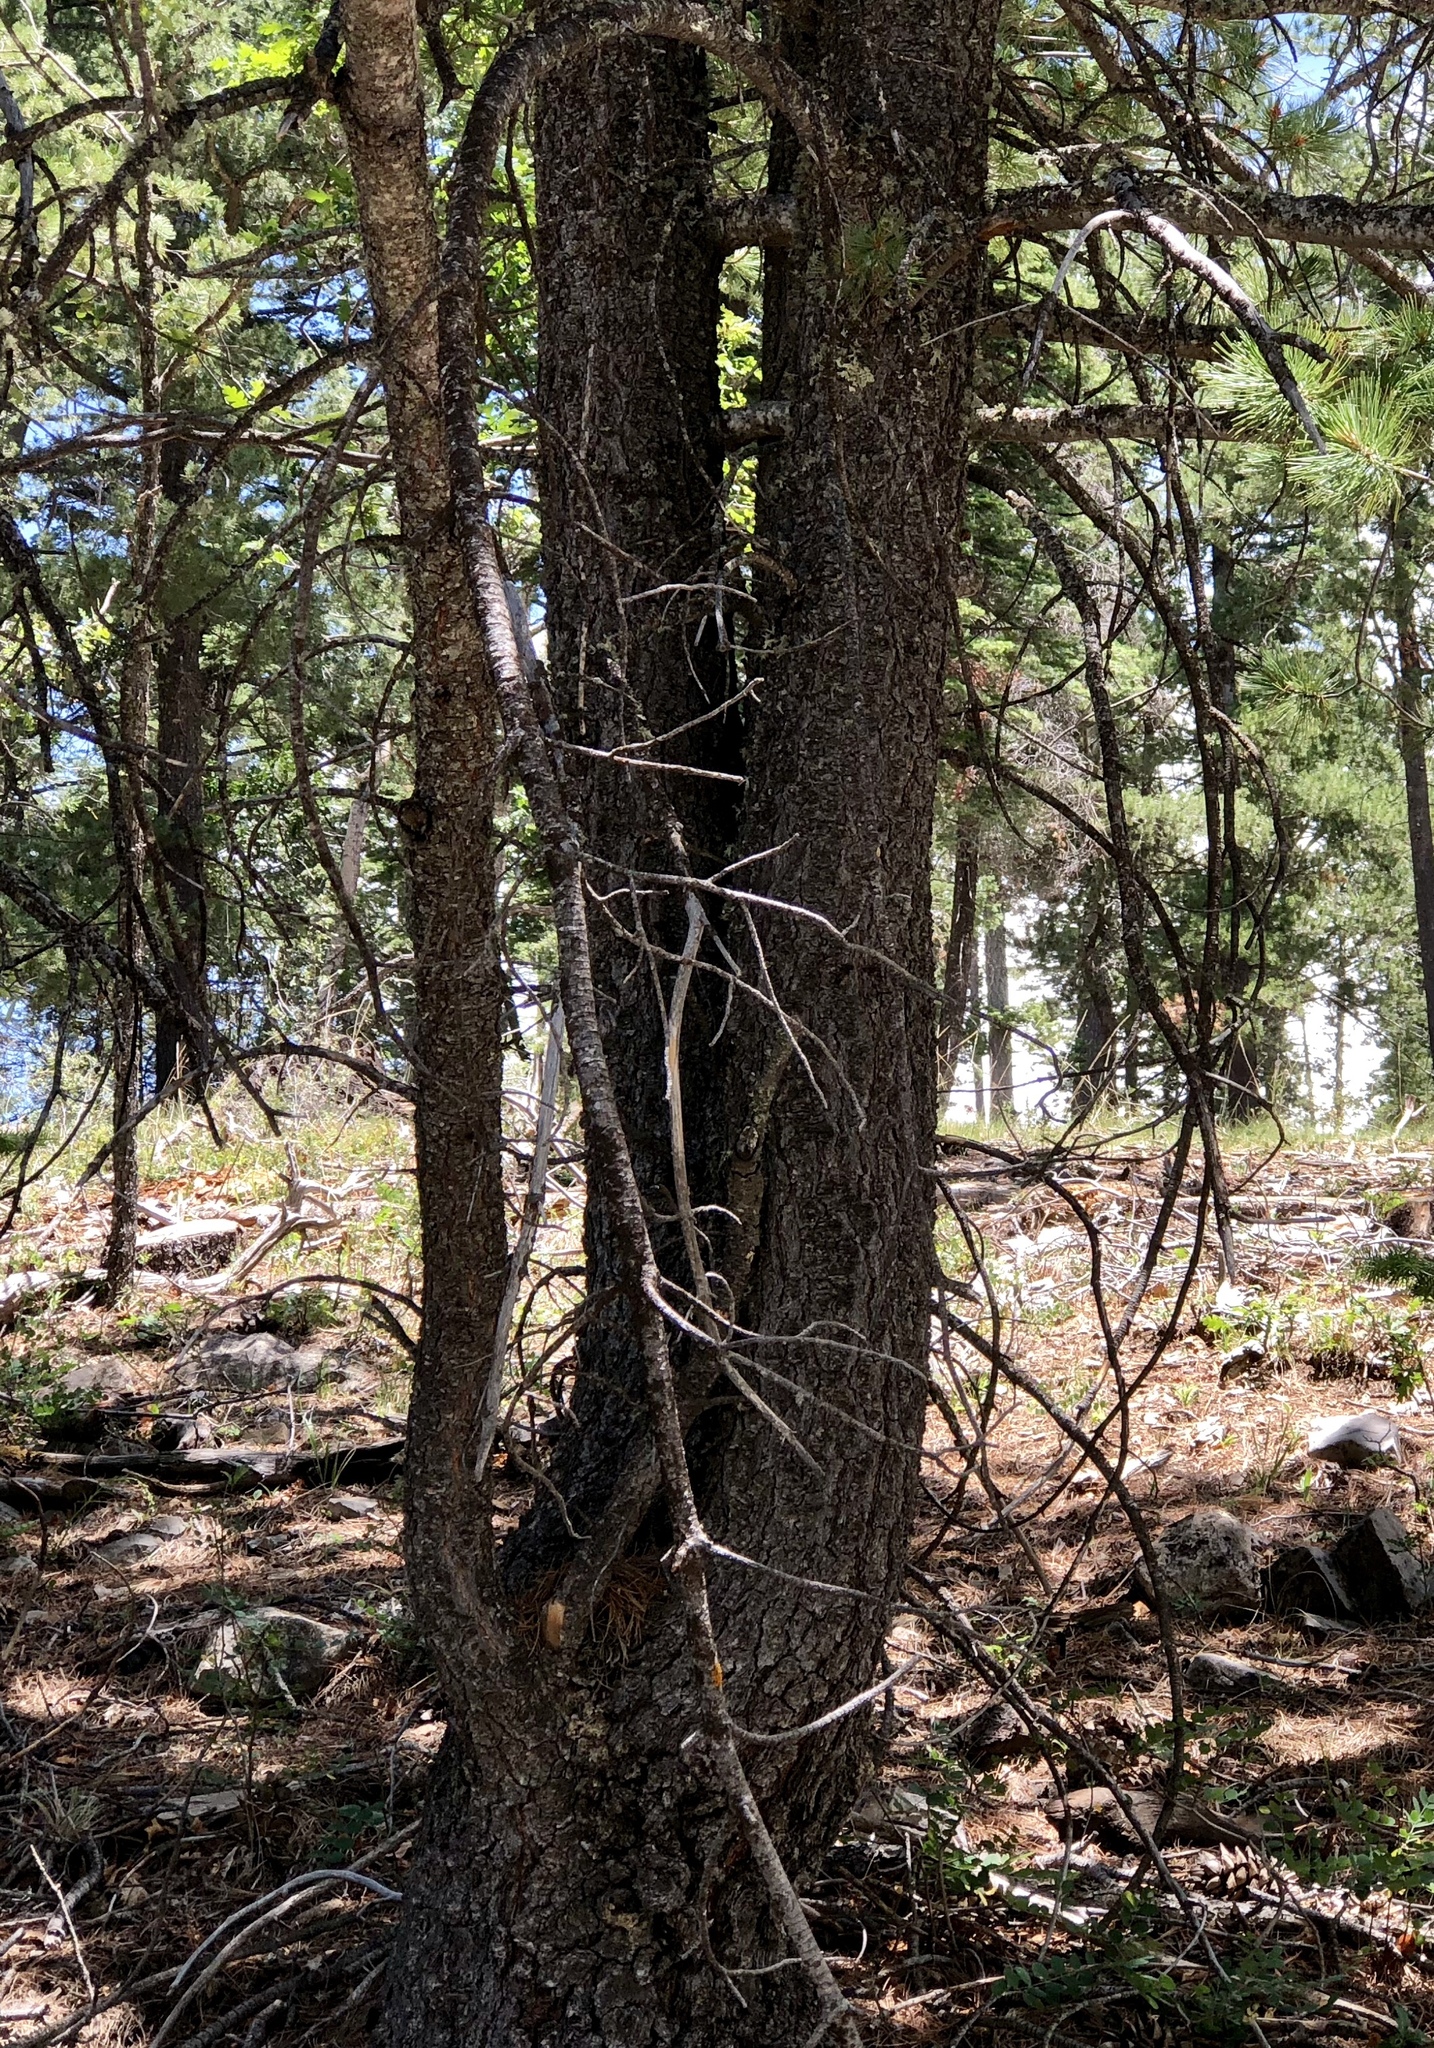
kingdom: Plantae
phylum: Tracheophyta
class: Pinopsida
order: Pinales
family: Pinaceae
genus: Pinus
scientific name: Pinus strobiformis
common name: Southwestern white pine
